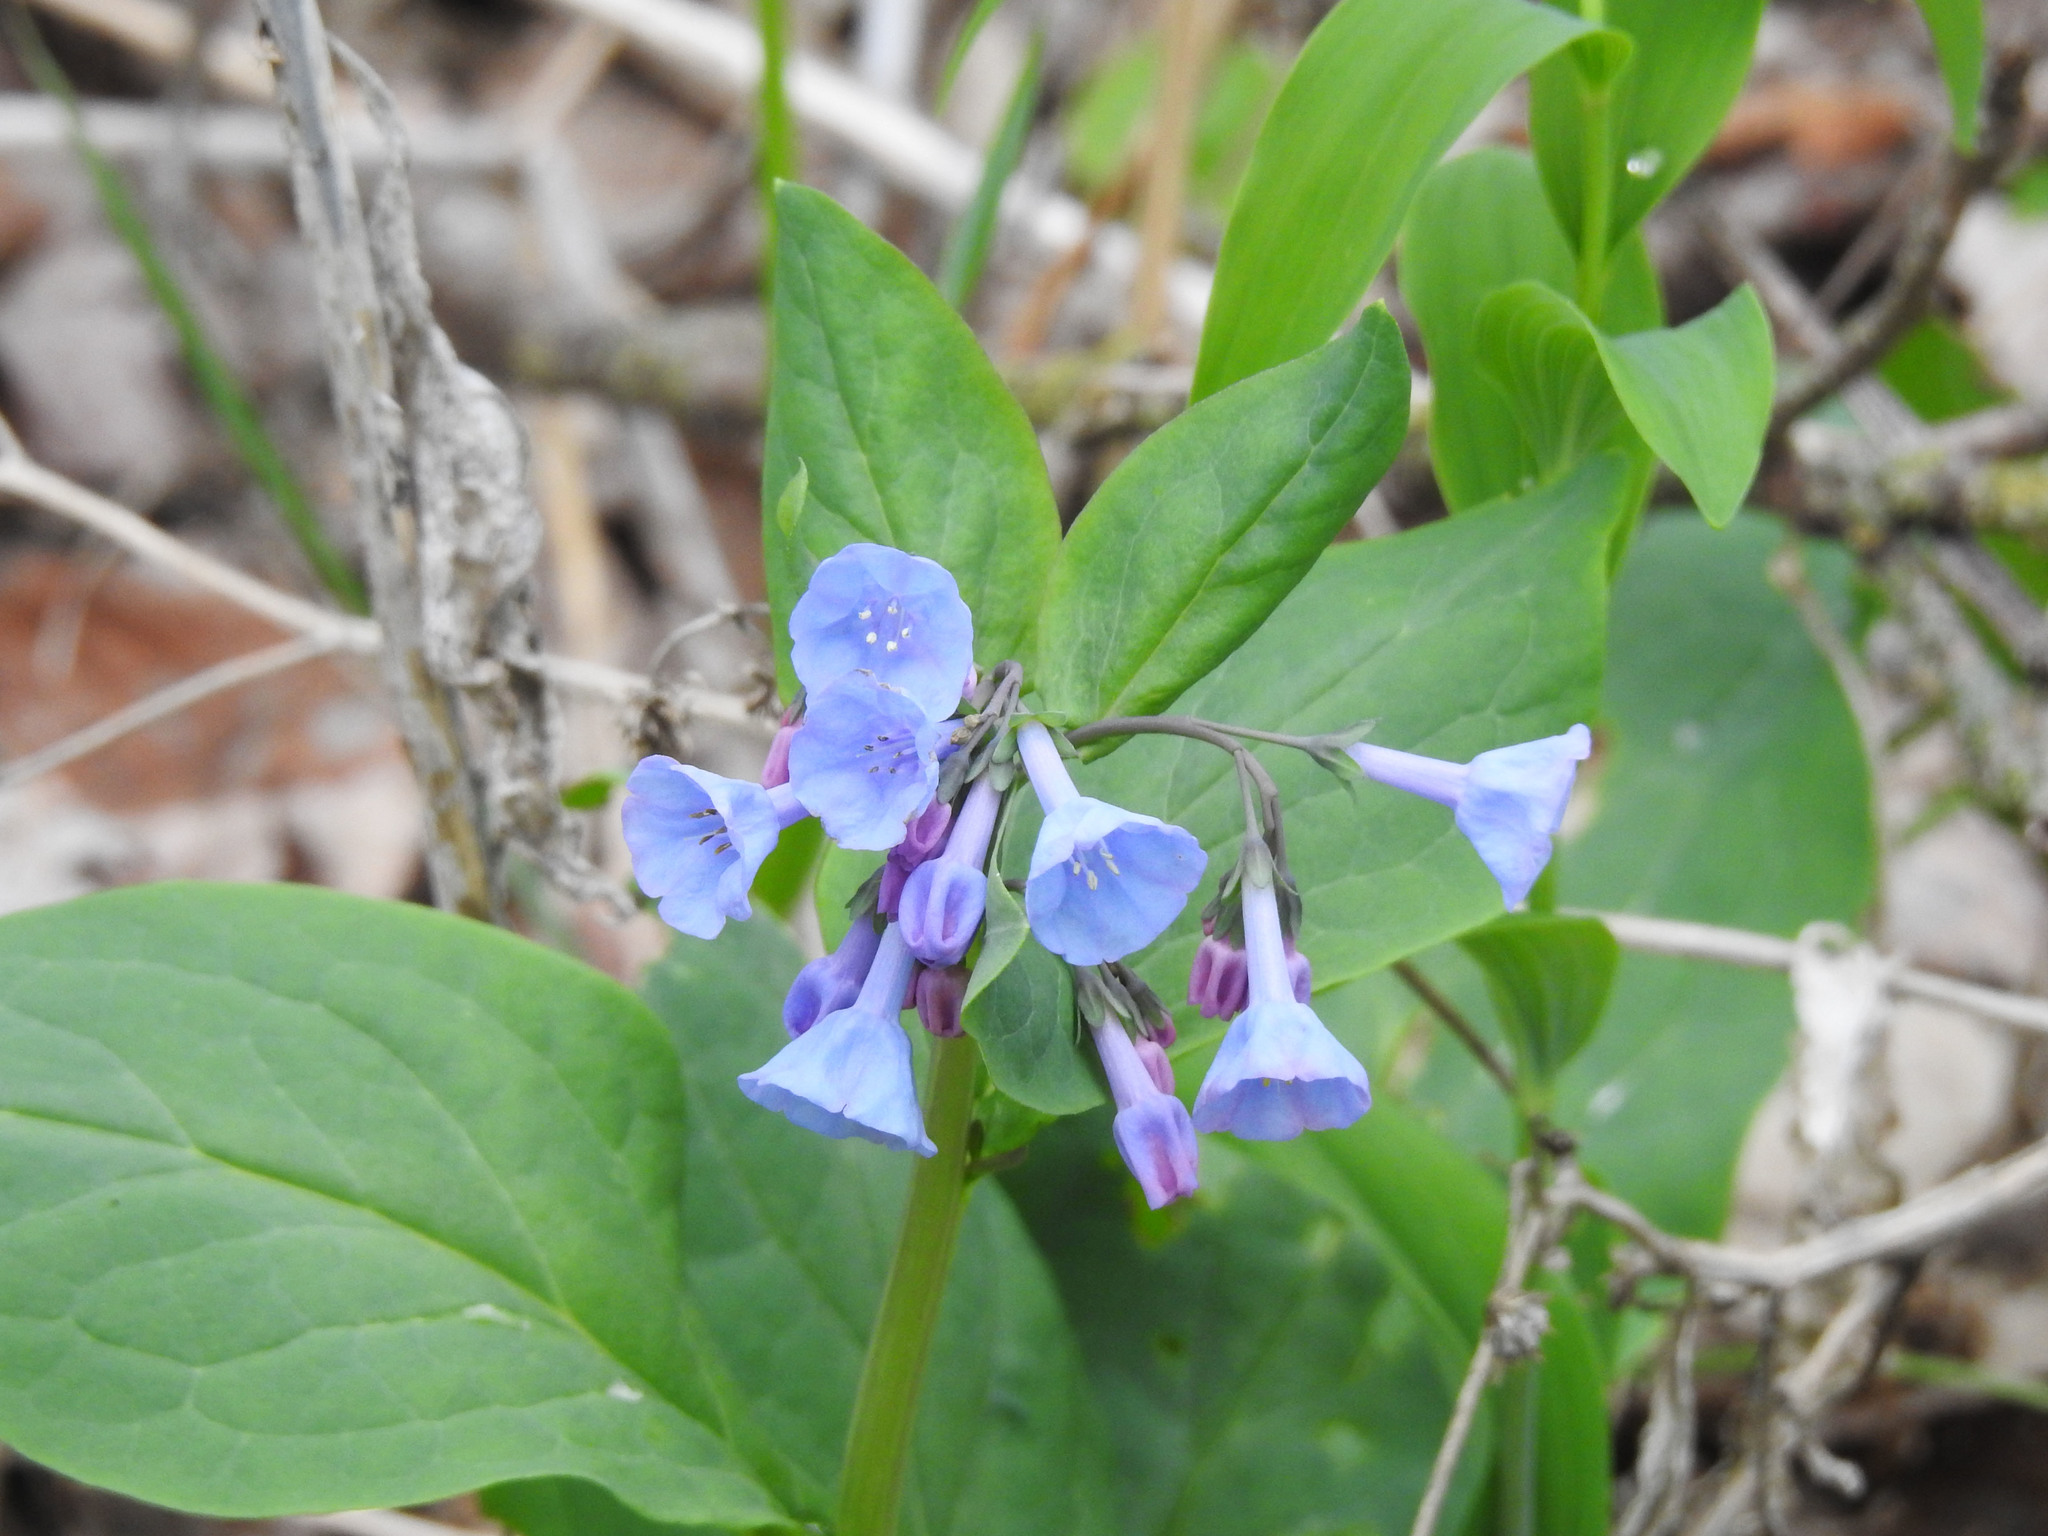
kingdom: Plantae
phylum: Tracheophyta
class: Magnoliopsida
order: Boraginales
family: Boraginaceae
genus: Mertensia
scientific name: Mertensia virginica
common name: Virginia bluebells
